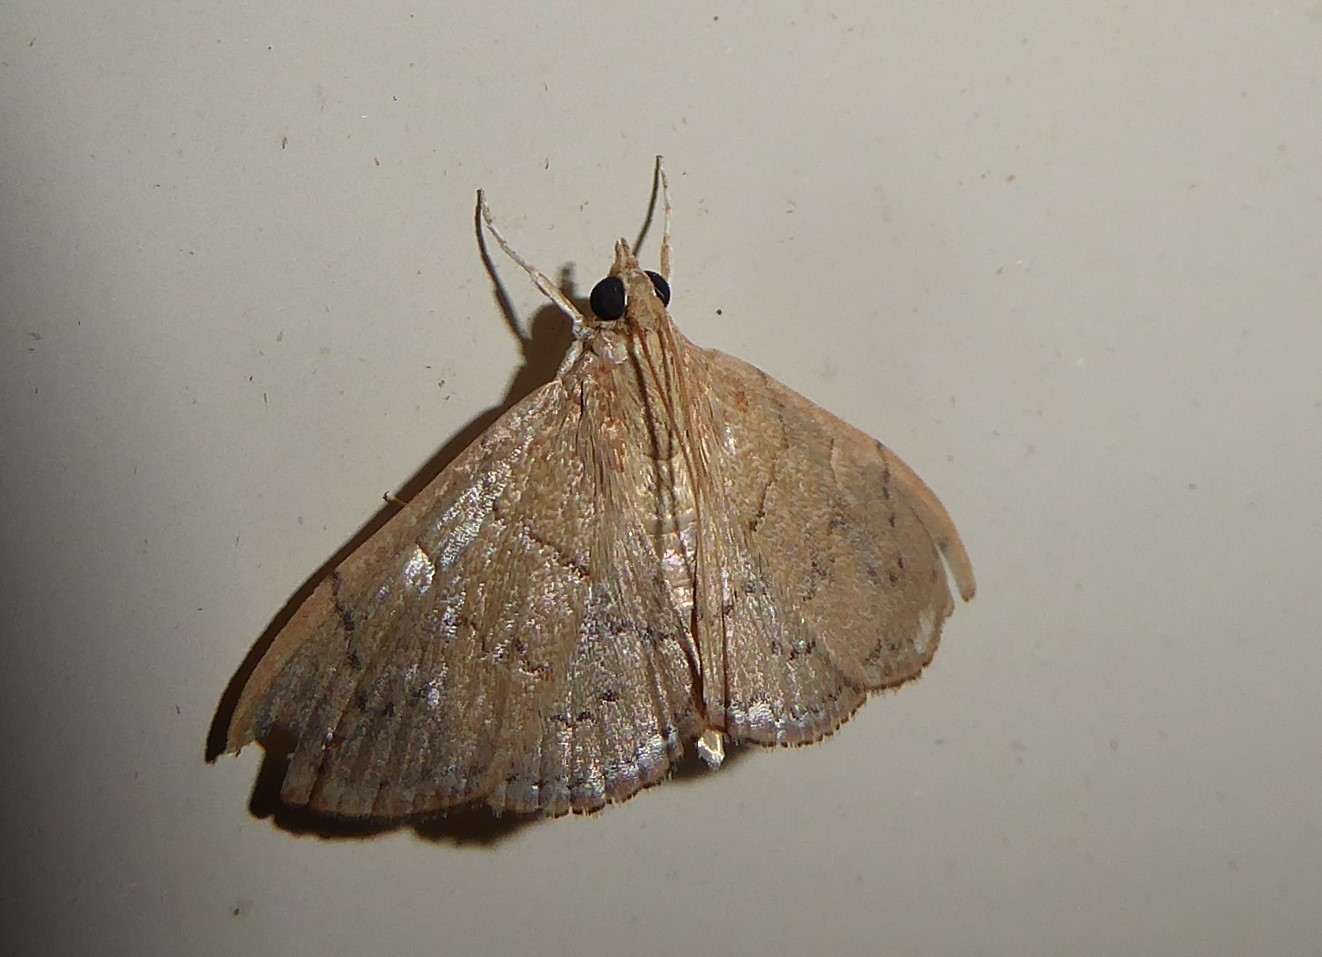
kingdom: Animalia
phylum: Arthropoda
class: Insecta
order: Lepidoptera
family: Crambidae
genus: Hyalobathra
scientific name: Hyalobathra archeleuca
